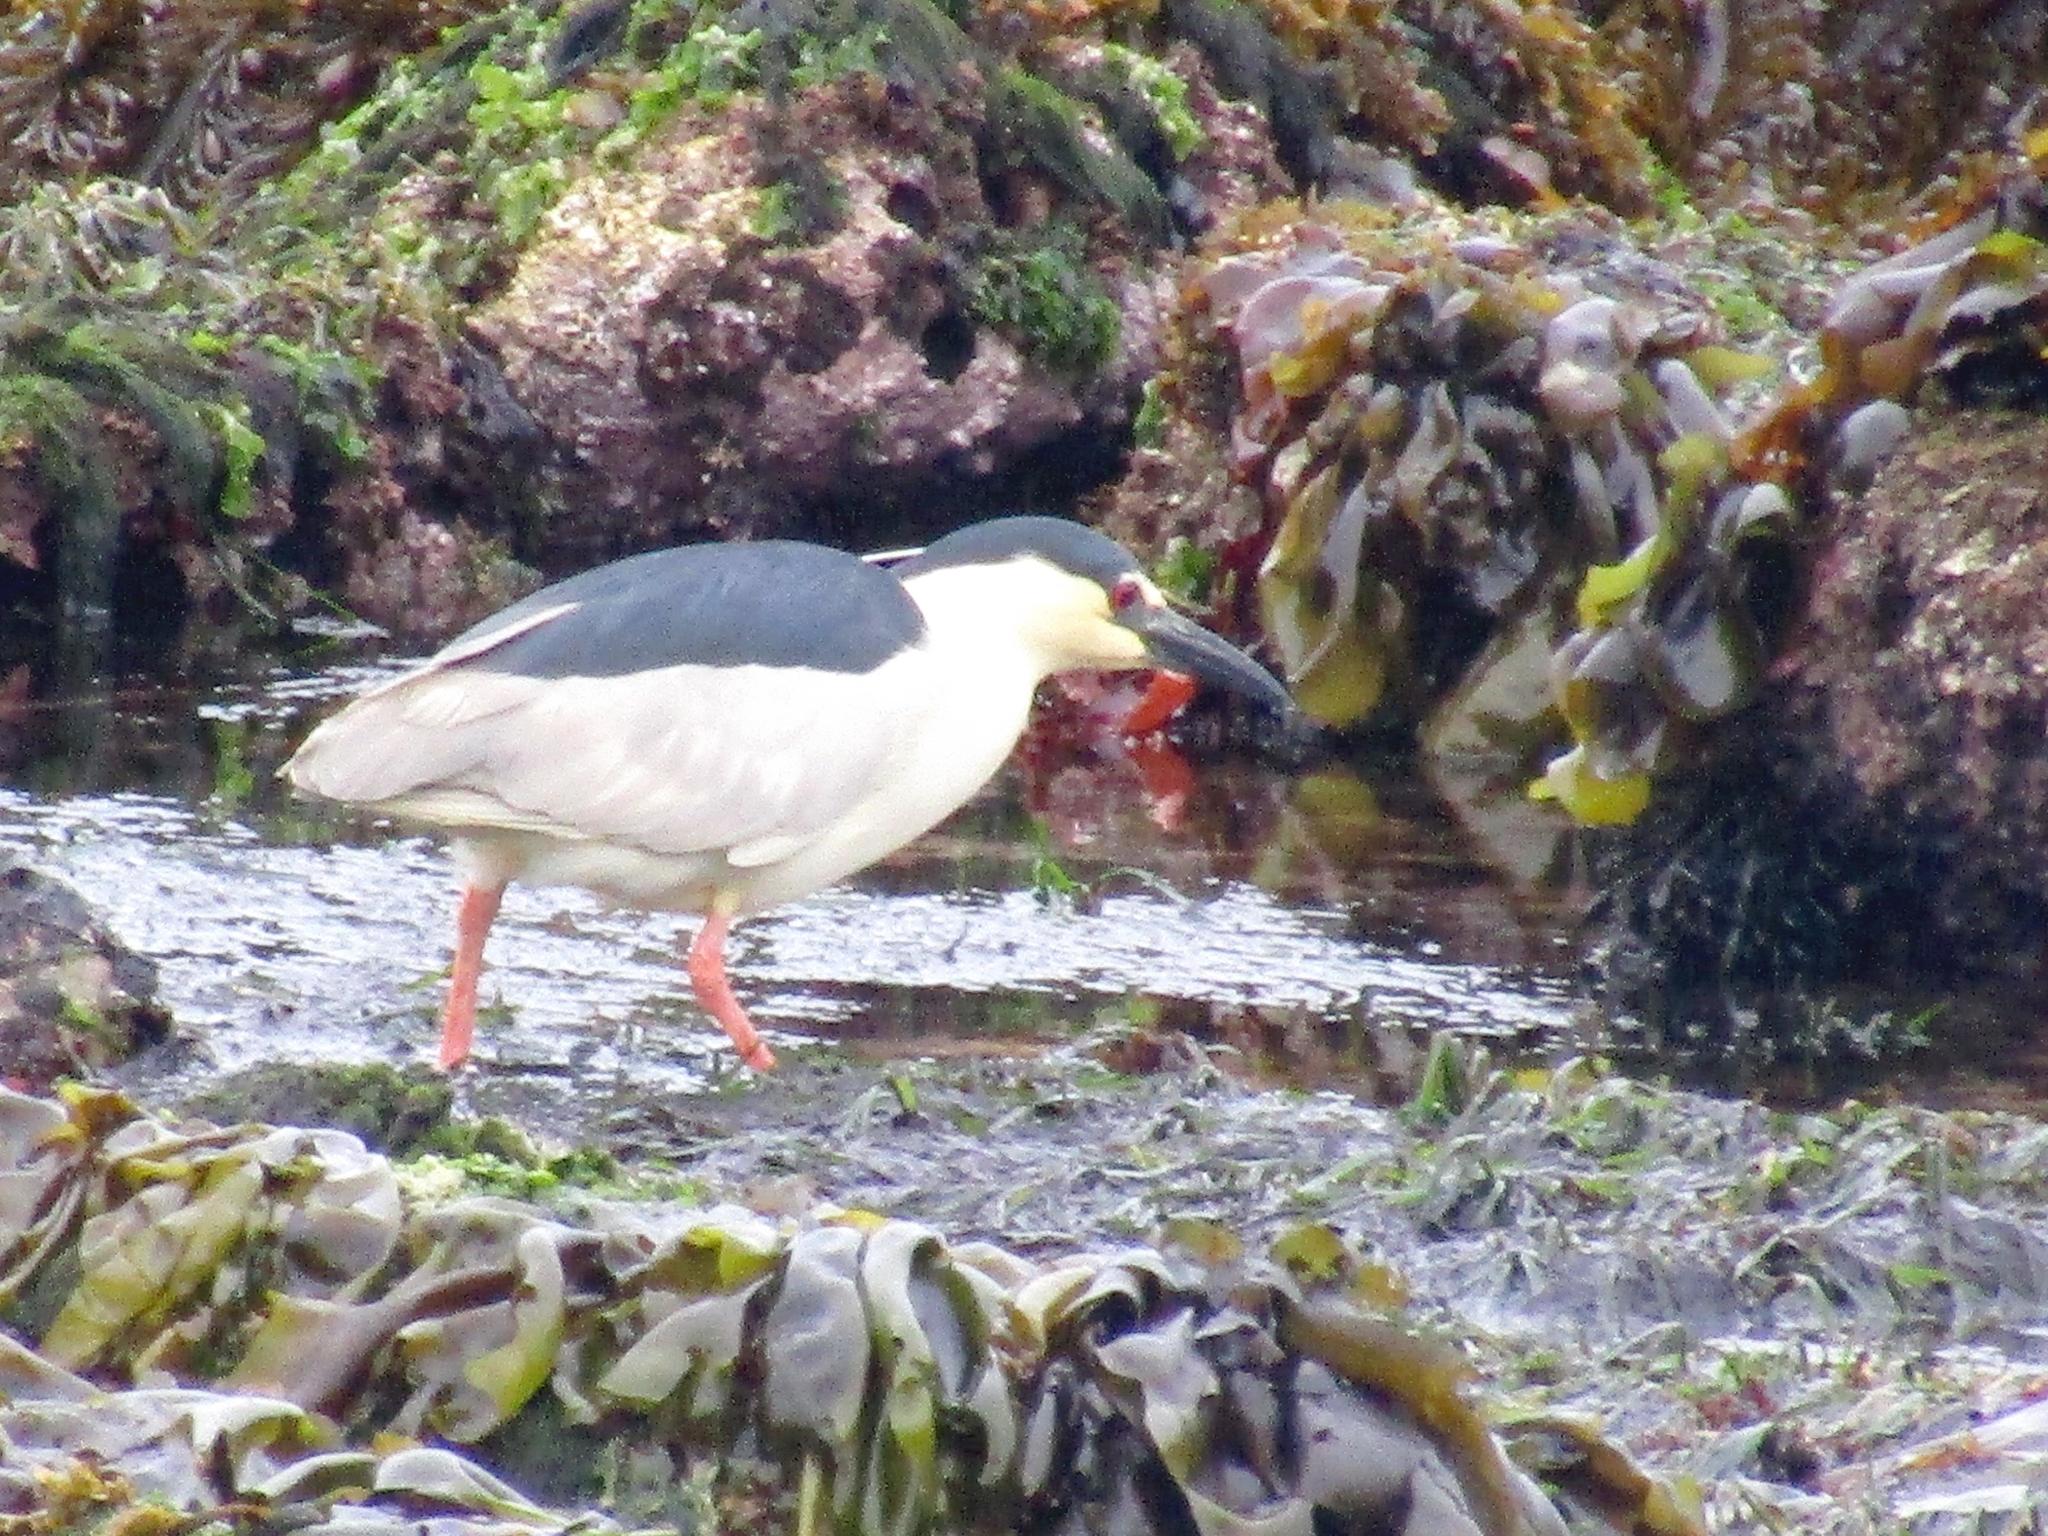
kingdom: Animalia
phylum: Chordata
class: Aves
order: Pelecaniformes
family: Ardeidae
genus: Nycticorax
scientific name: Nycticorax nycticorax
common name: Black-crowned night heron
